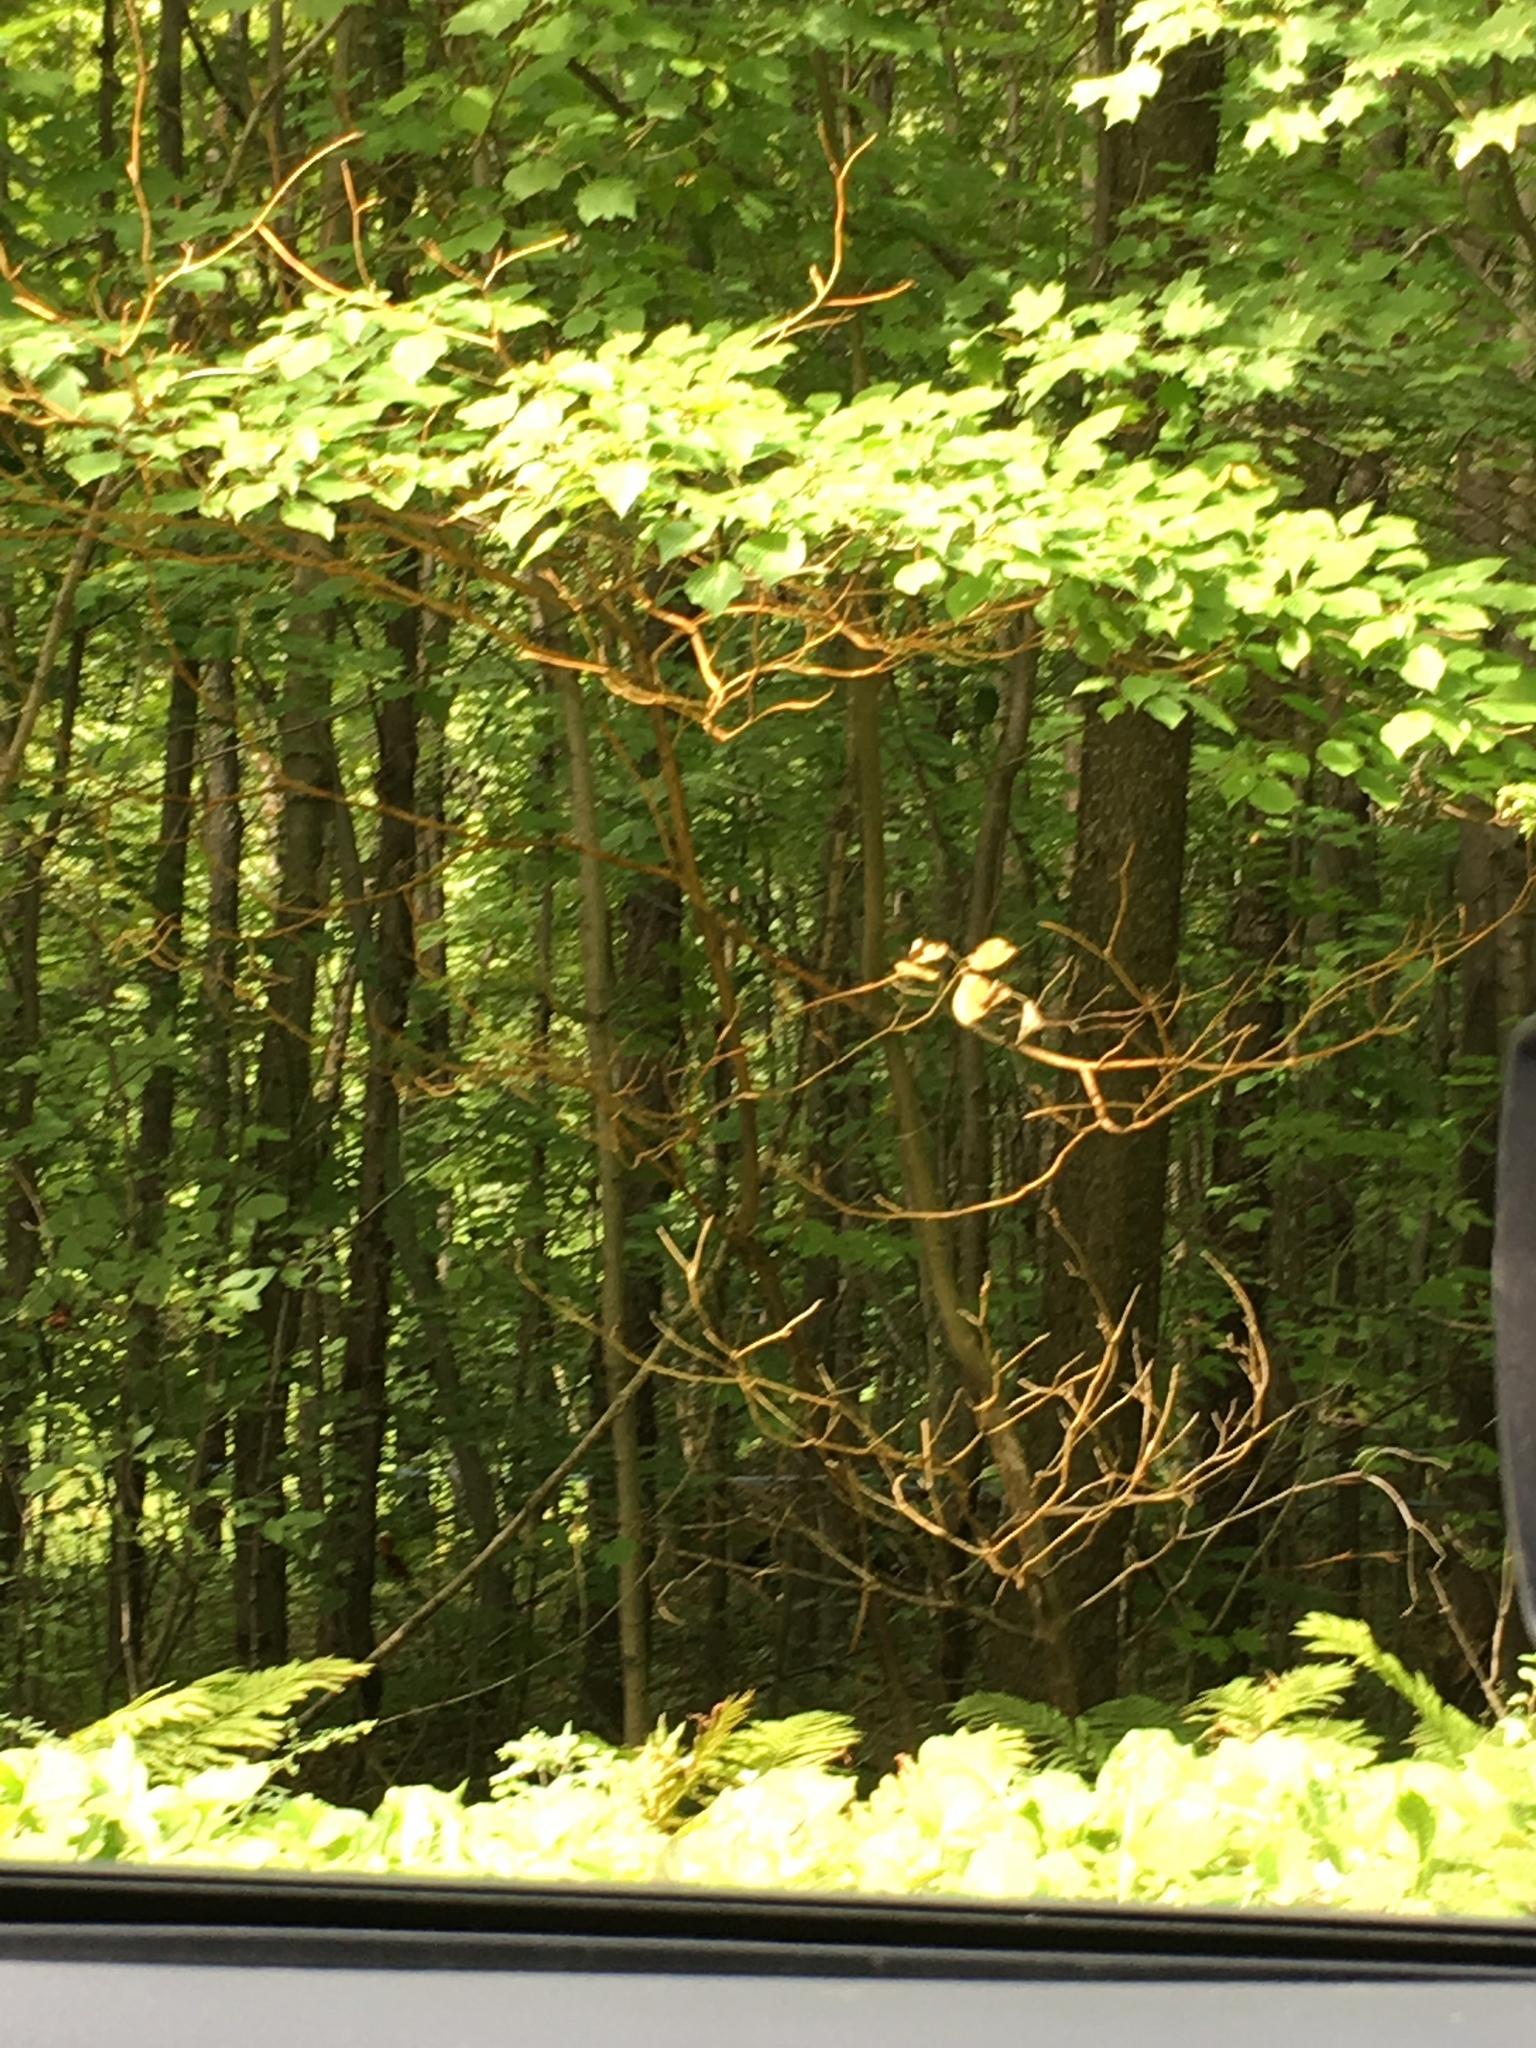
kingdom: Plantae
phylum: Tracheophyta
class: Magnoliopsida
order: Cornales
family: Cornaceae
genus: Cornus
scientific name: Cornus alternifolia
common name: Pagoda dogwood
